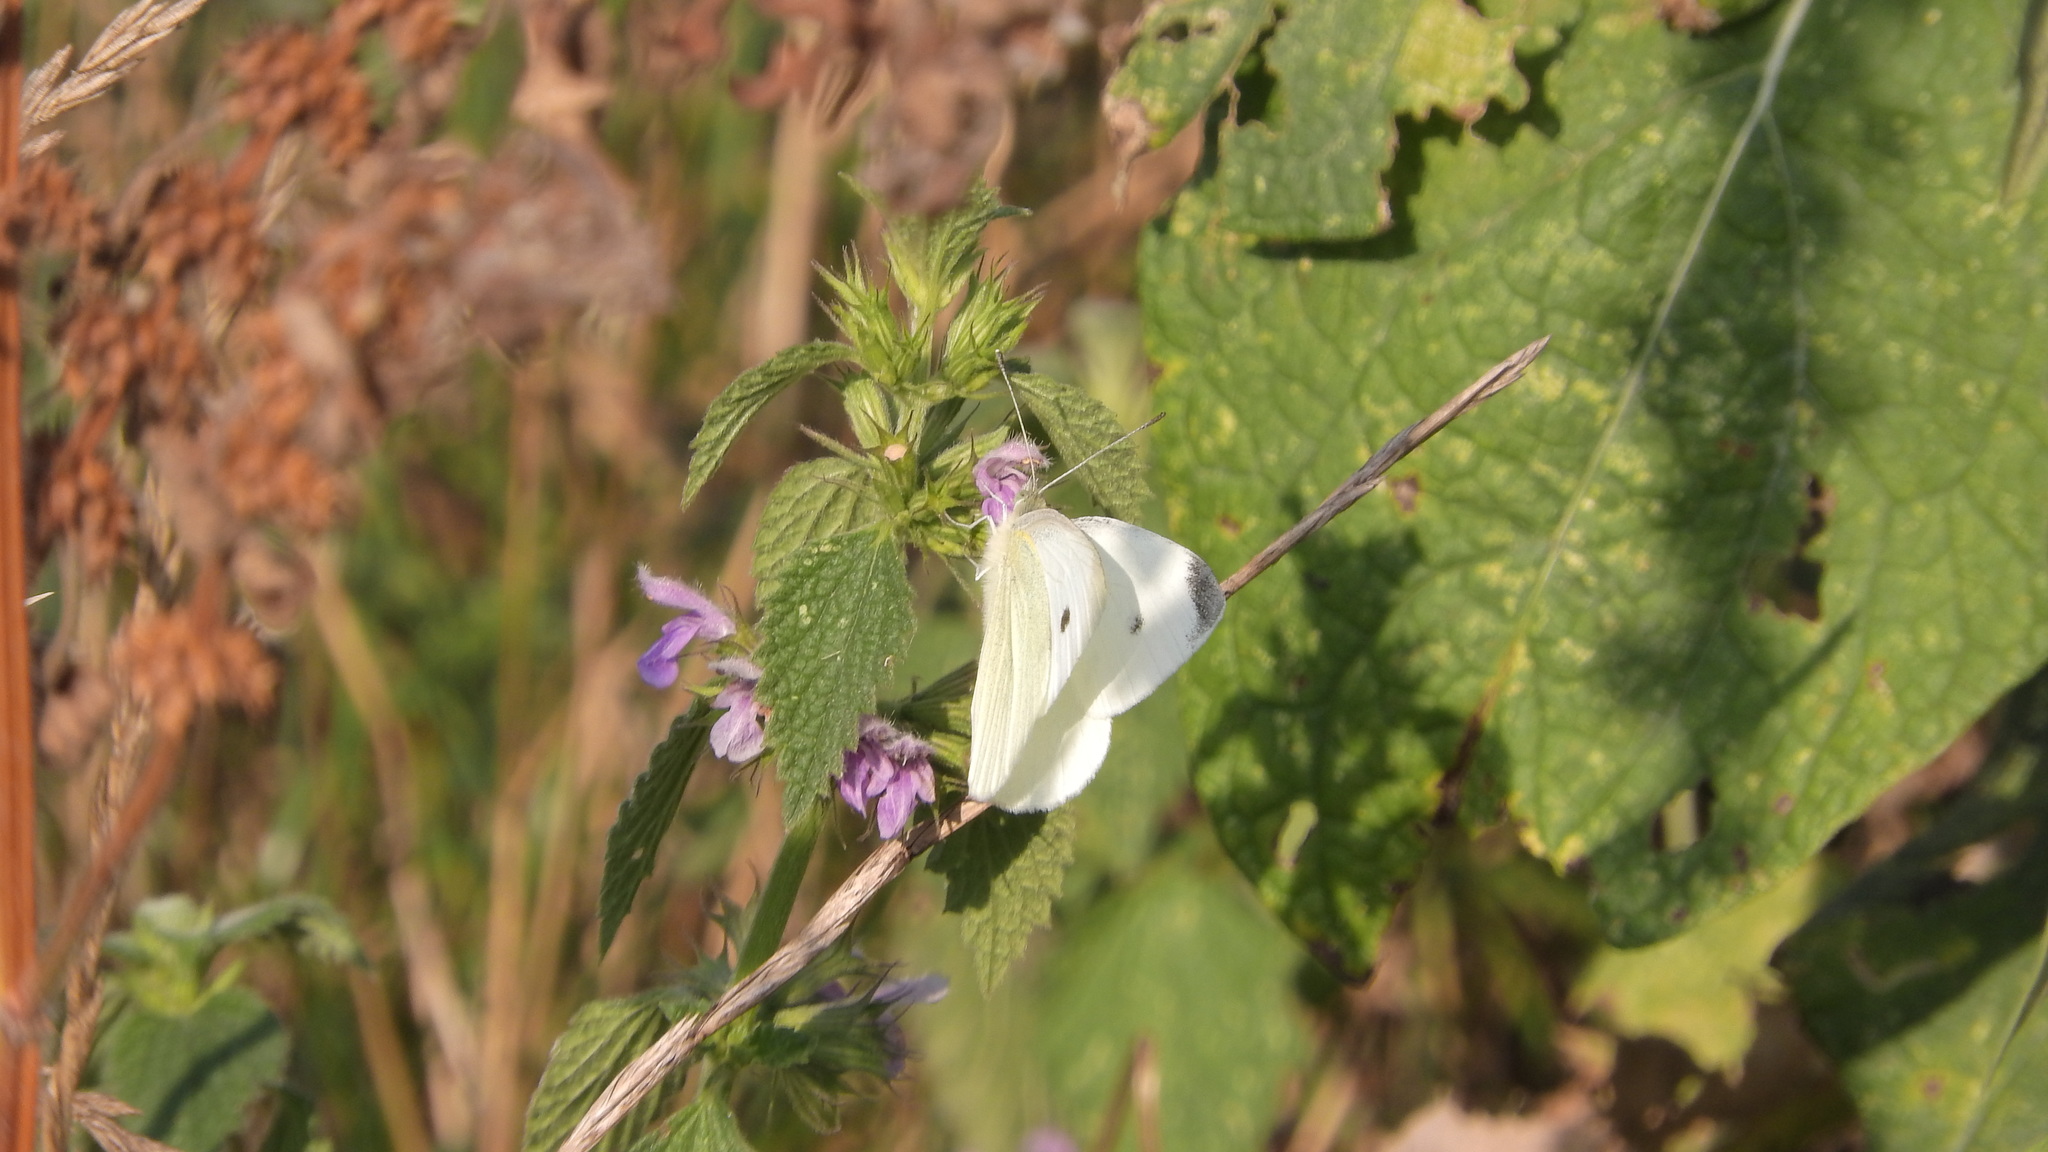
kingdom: Animalia
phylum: Arthropoda
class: Insecta
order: Lepidoptera
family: Pieridae
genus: Pieris
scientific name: Pieris rapae
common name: Small white
